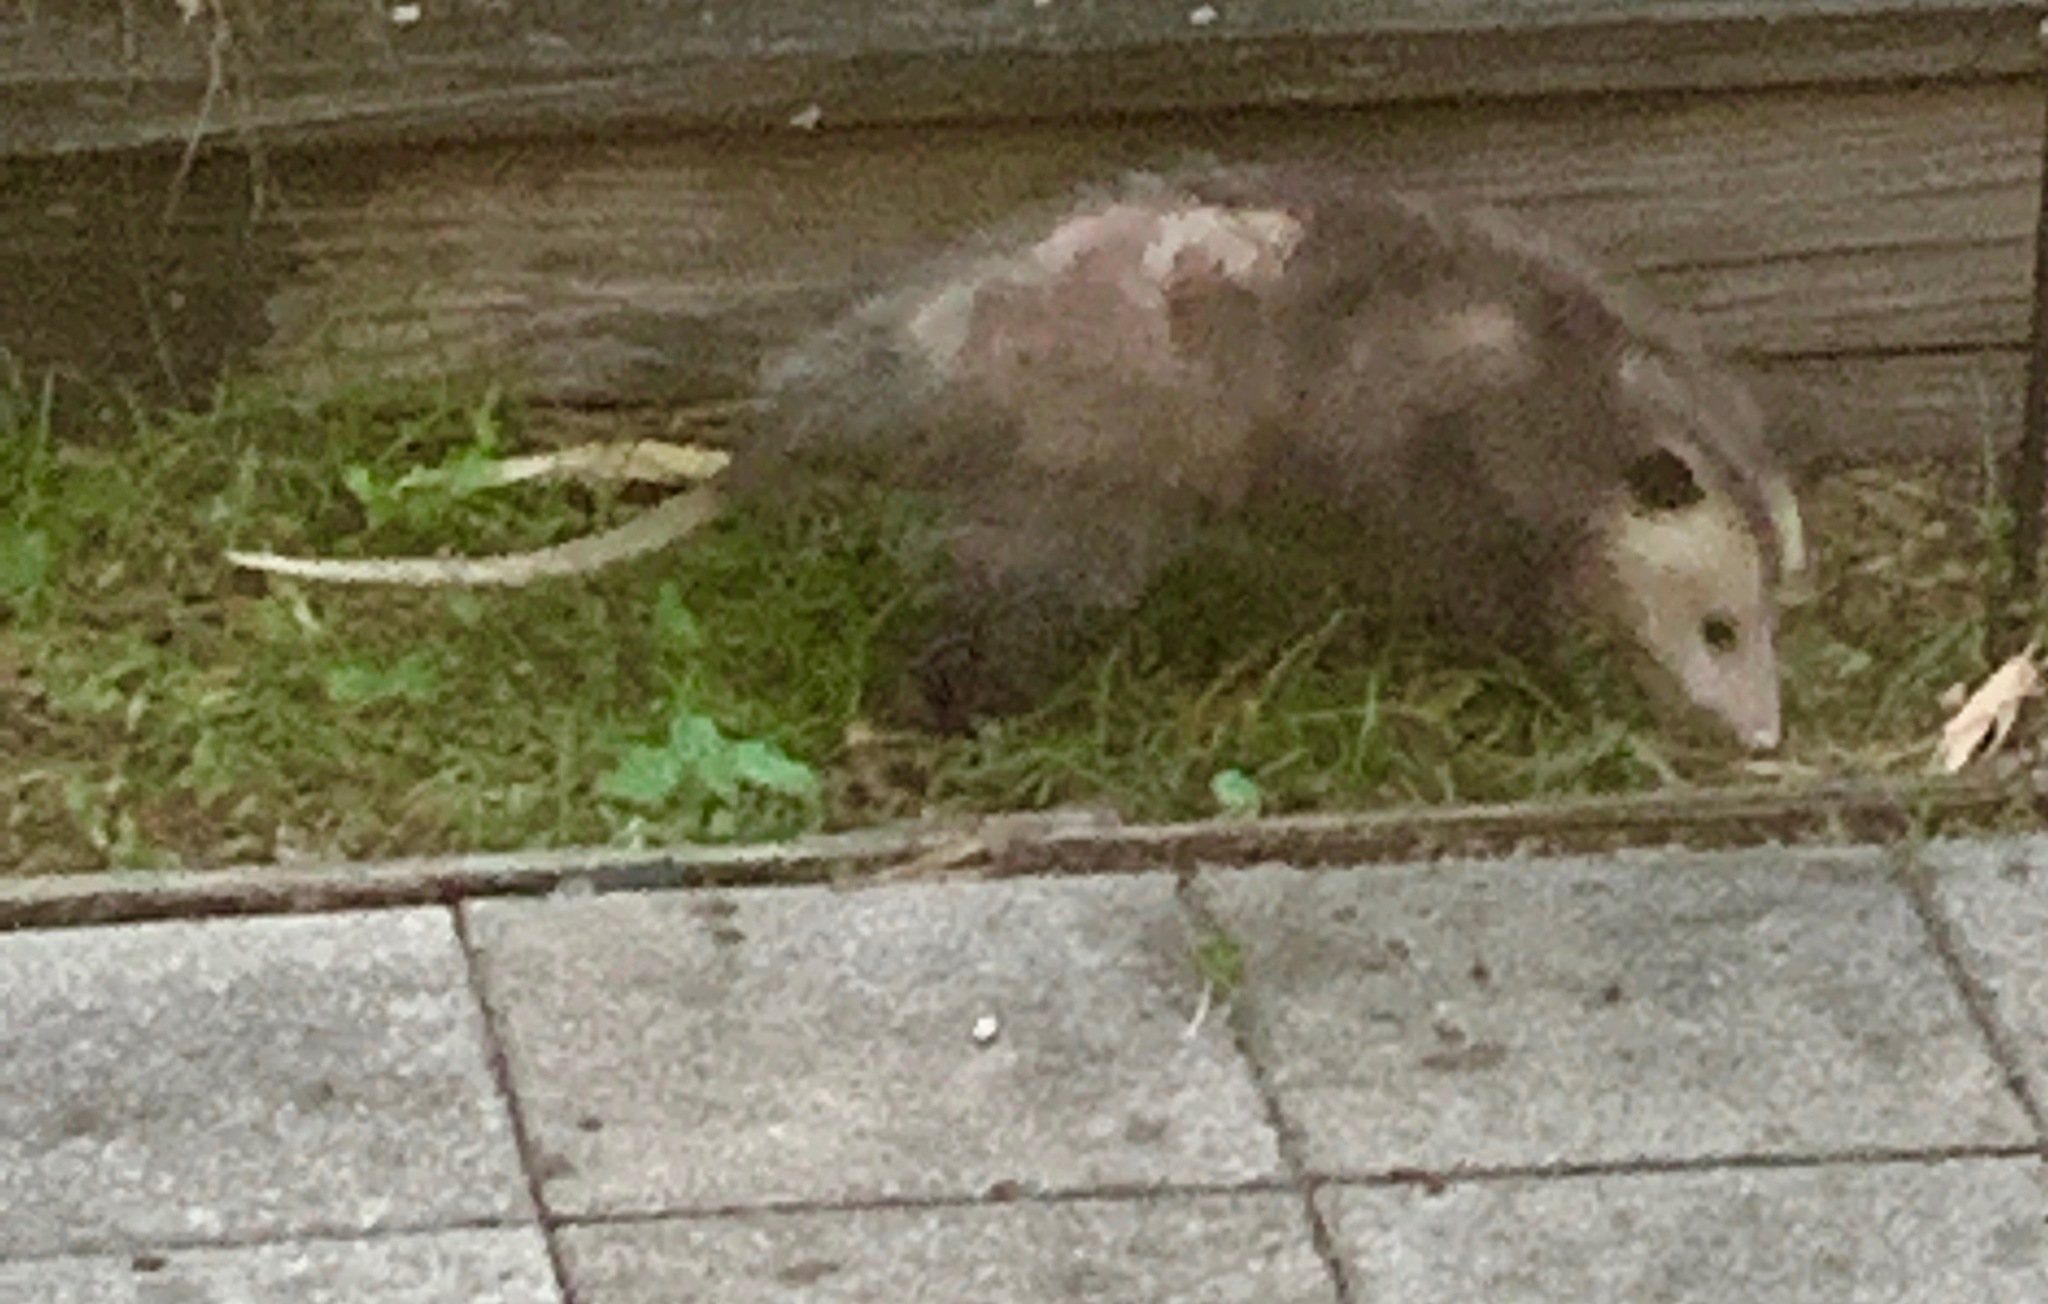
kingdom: Animalia
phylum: Chordata
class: Mammalia
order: Didelphimorphia
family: Didelphidae
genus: Didelphis
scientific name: Didelphis virginiana
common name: Virginia opossum
